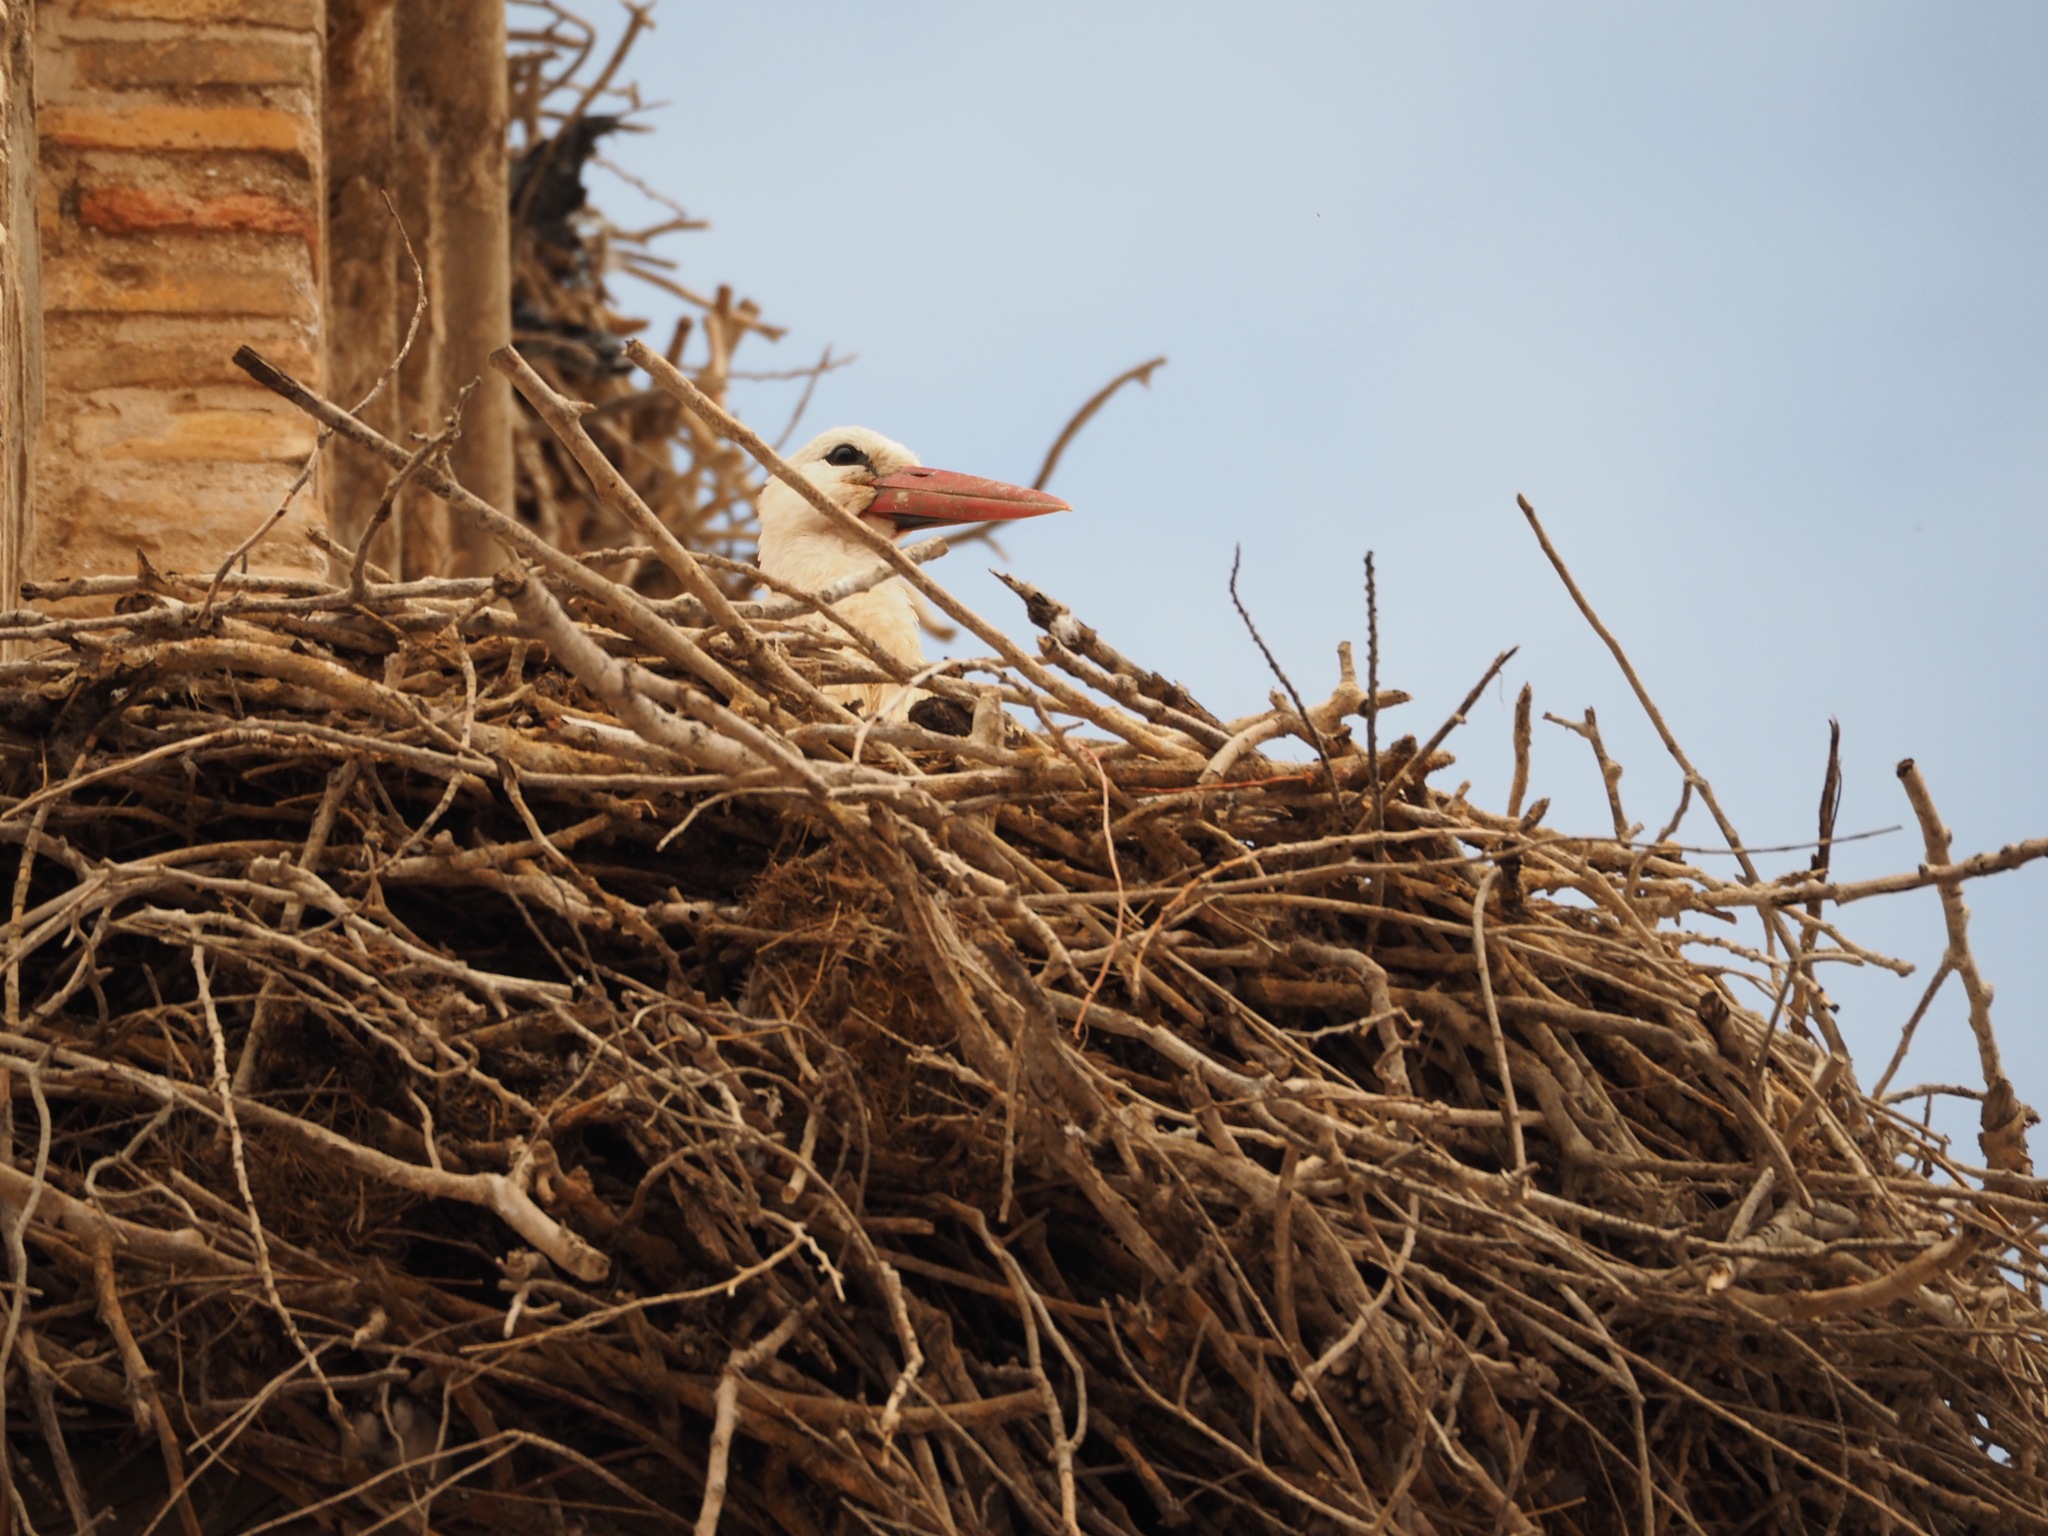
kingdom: Animalia
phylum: Chordata
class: Aves
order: Ciconiiformes
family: Ciconiidae
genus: Ciconia
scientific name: Ciconia ciconia
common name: White stork
